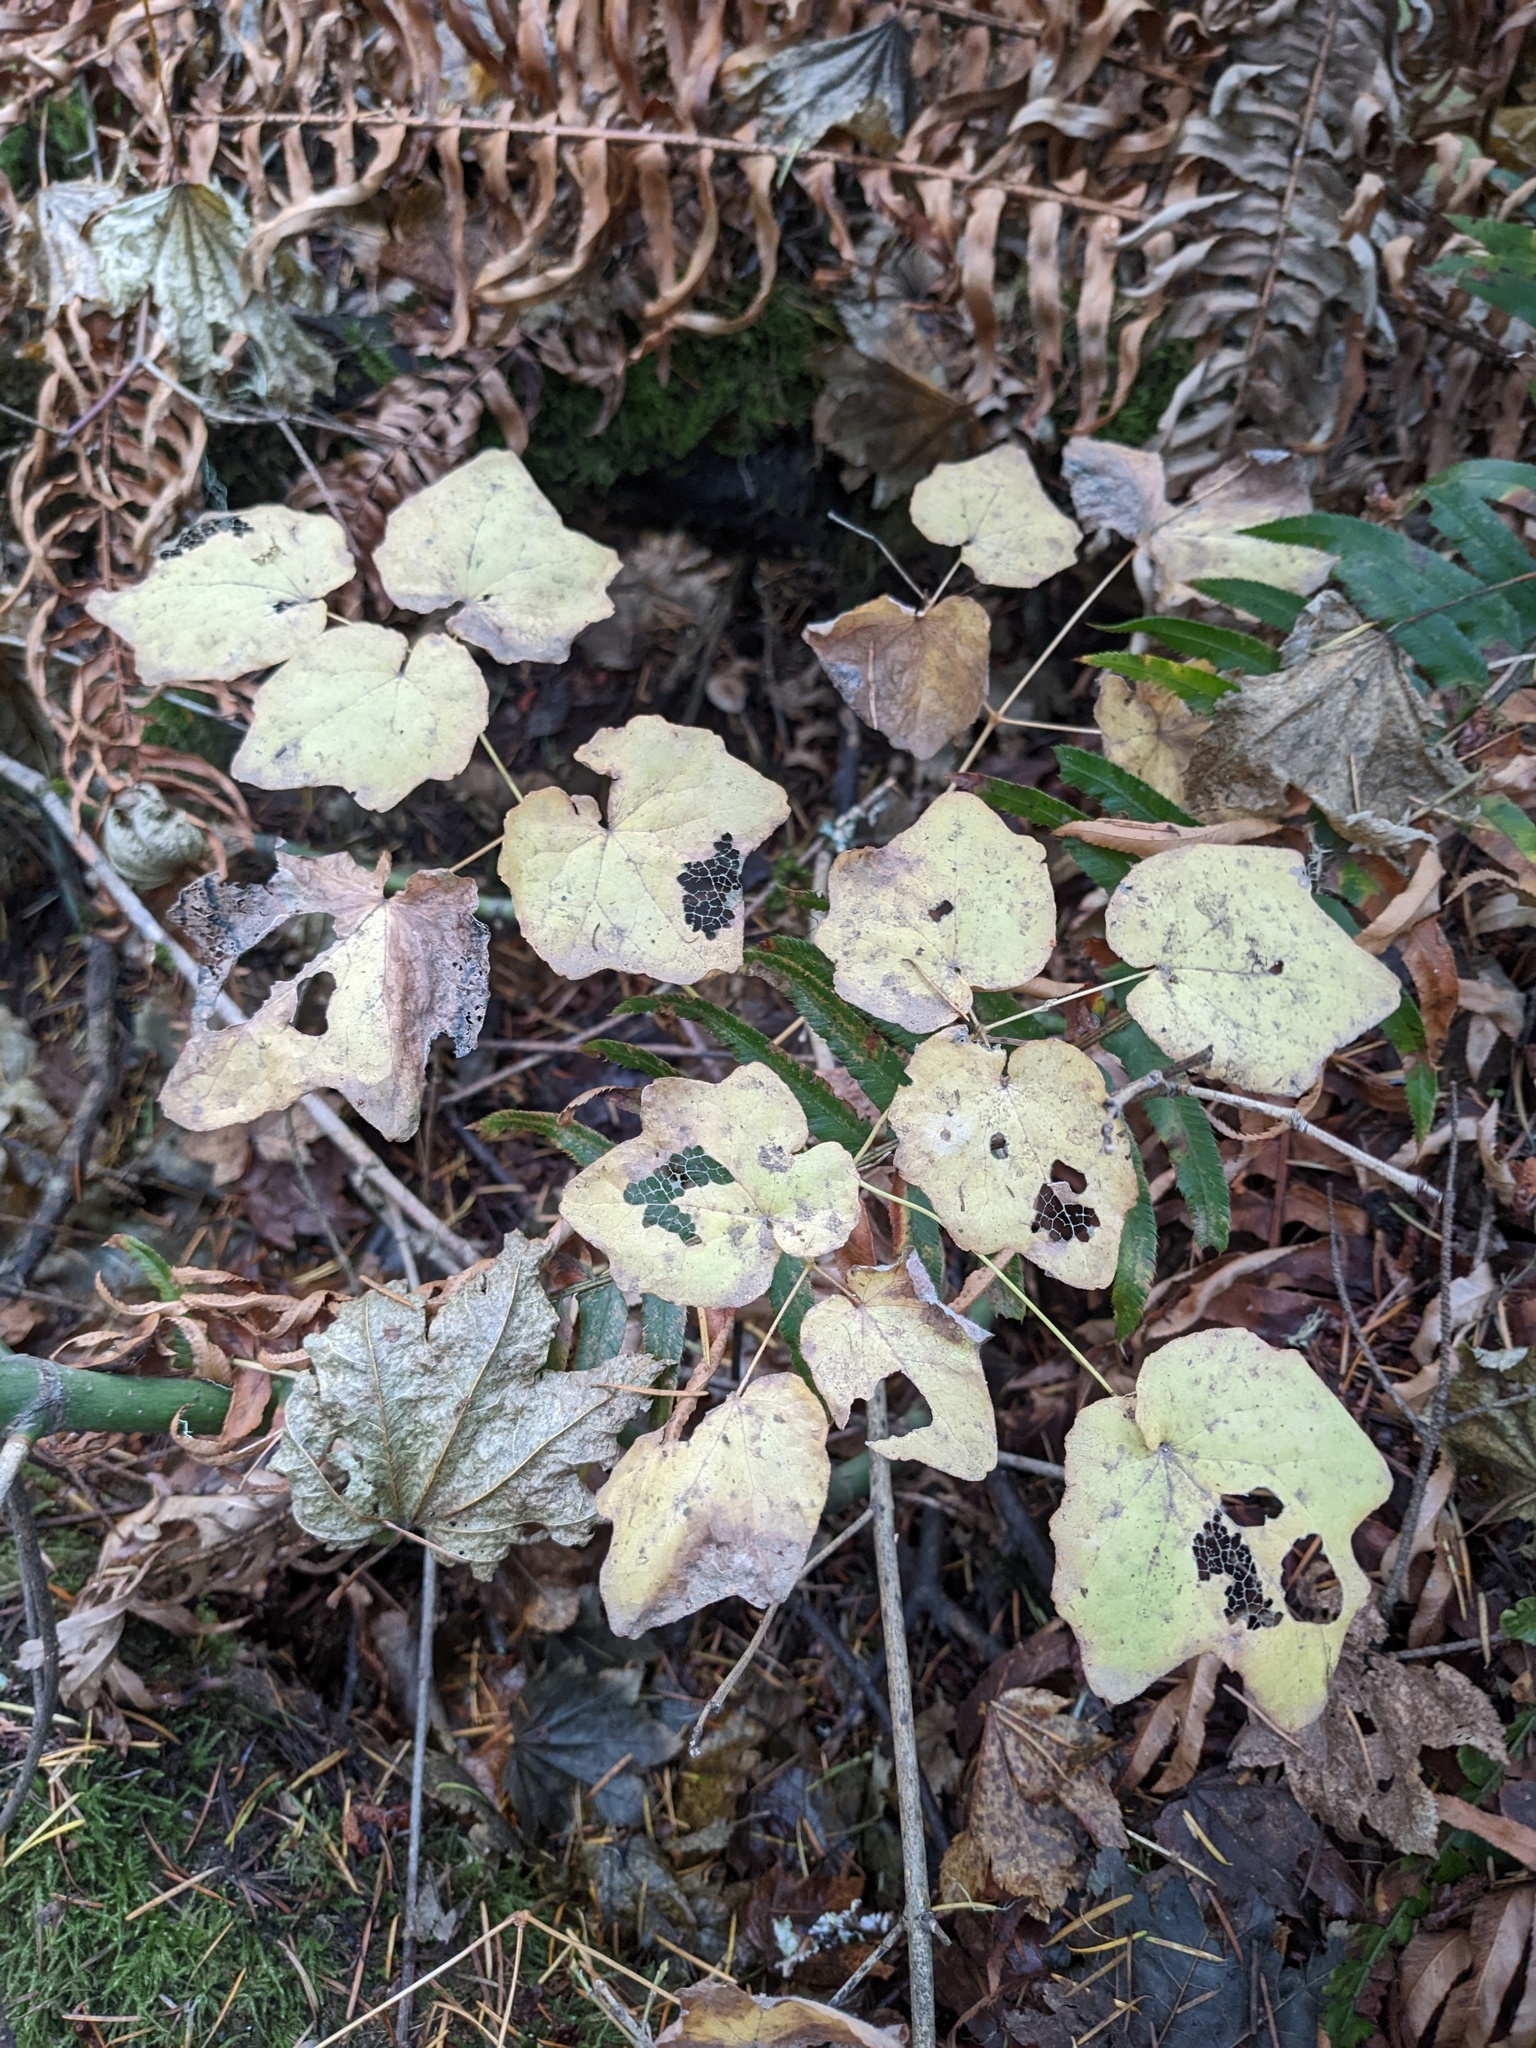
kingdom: Plantae
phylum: Tracheophyta
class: Magnoliopsida
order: Ranunculales
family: Berberidaceae
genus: Vancouveria
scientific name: Vancouveria hexandra
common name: Northern inside-out-flower
